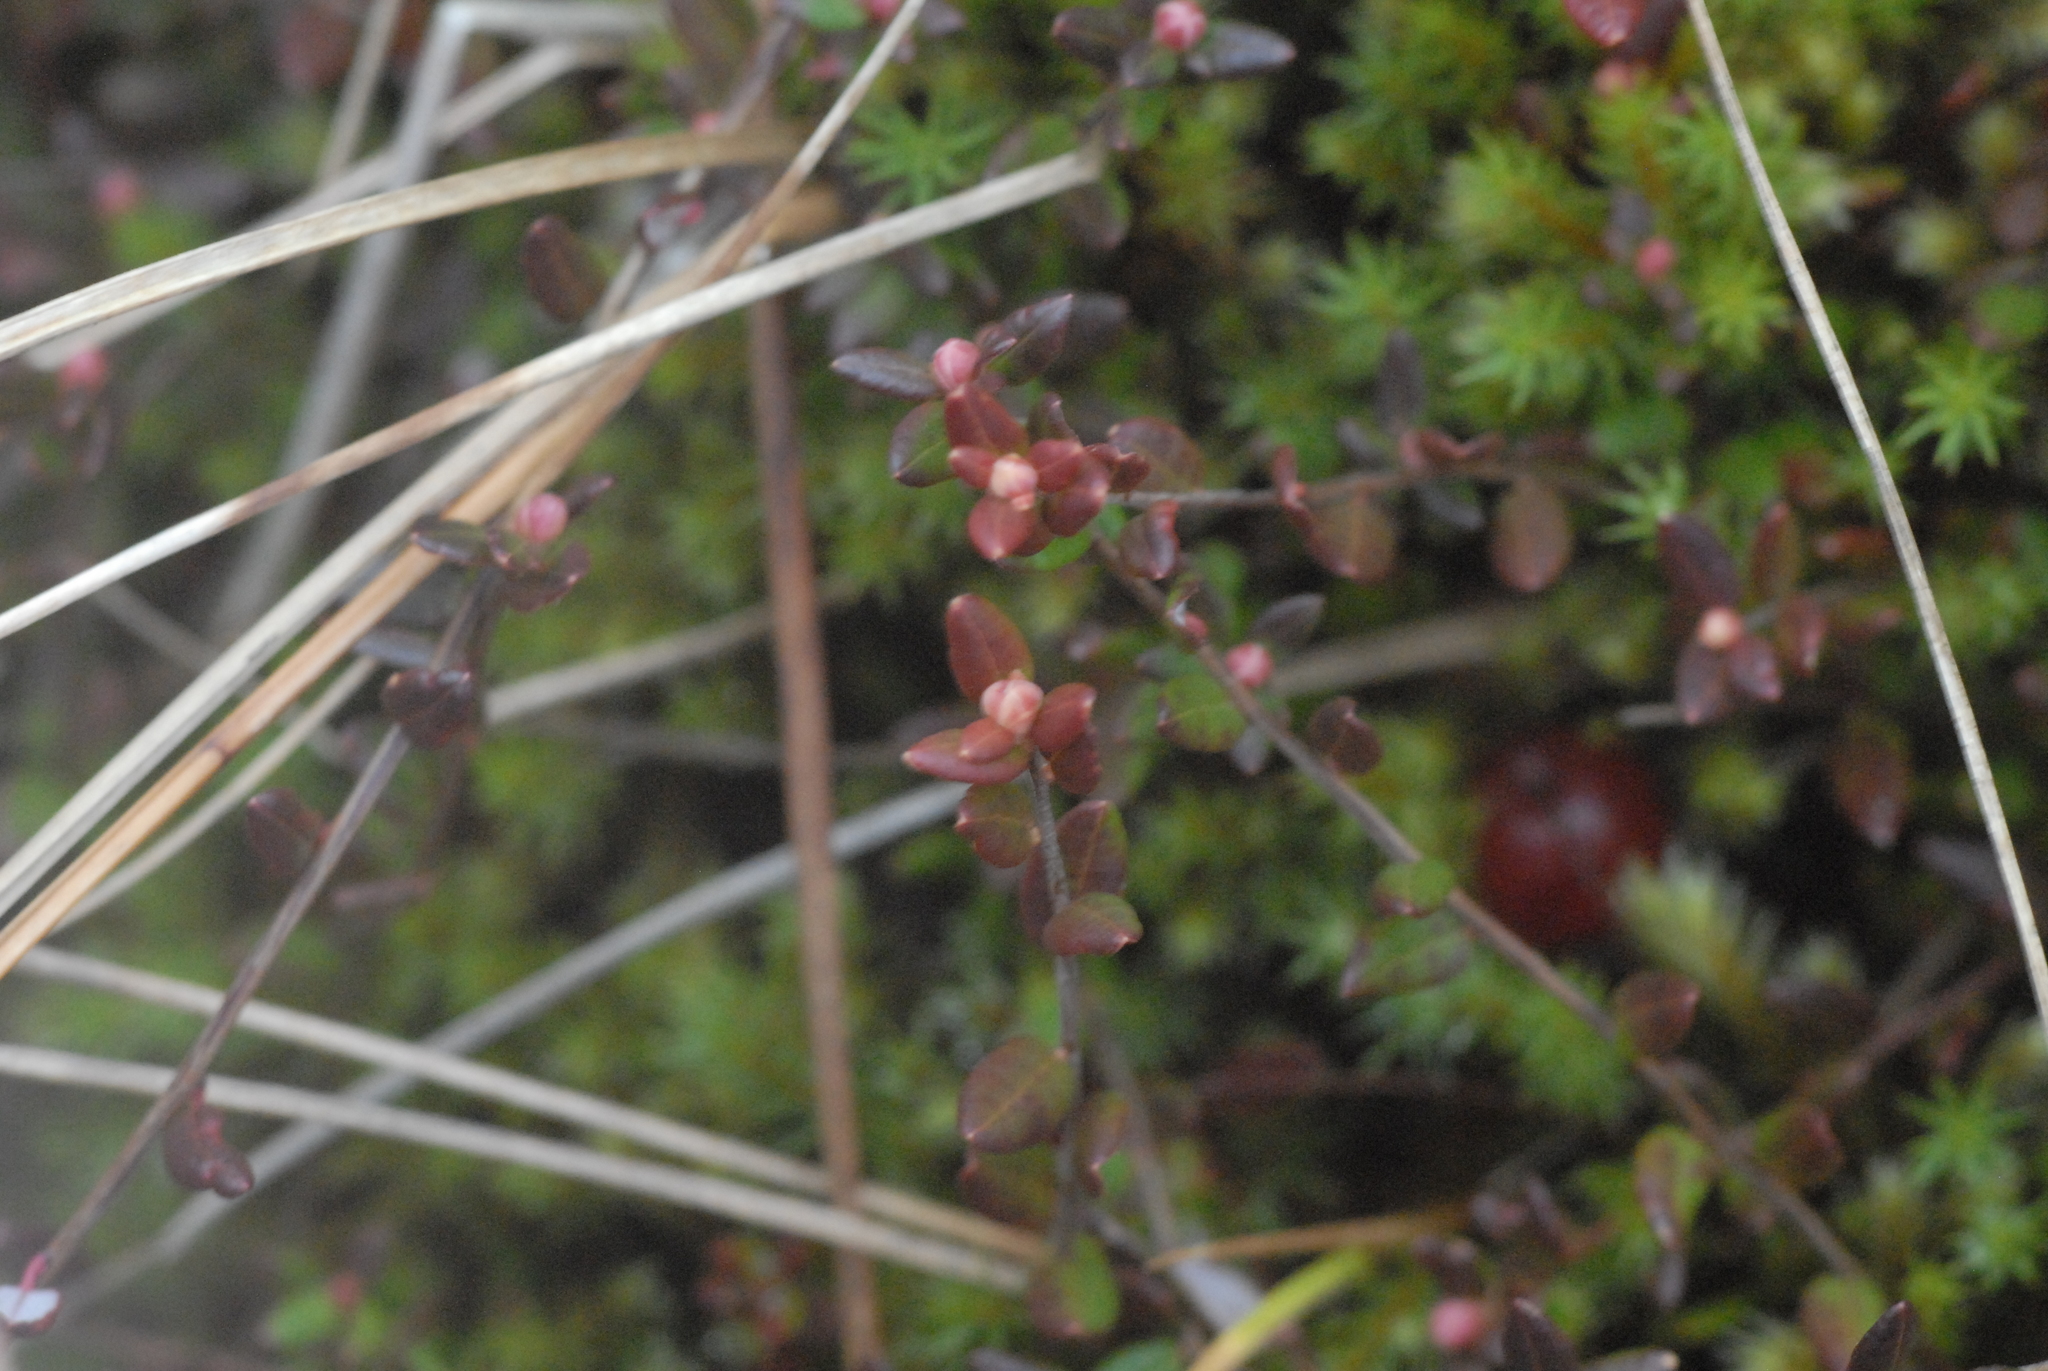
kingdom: Plantae
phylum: Tracheophyta
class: Magnoliopsida
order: Ericales
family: Ericaceae
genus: Vaccinium
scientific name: Vaccinium oxycoccos
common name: Cranberry
